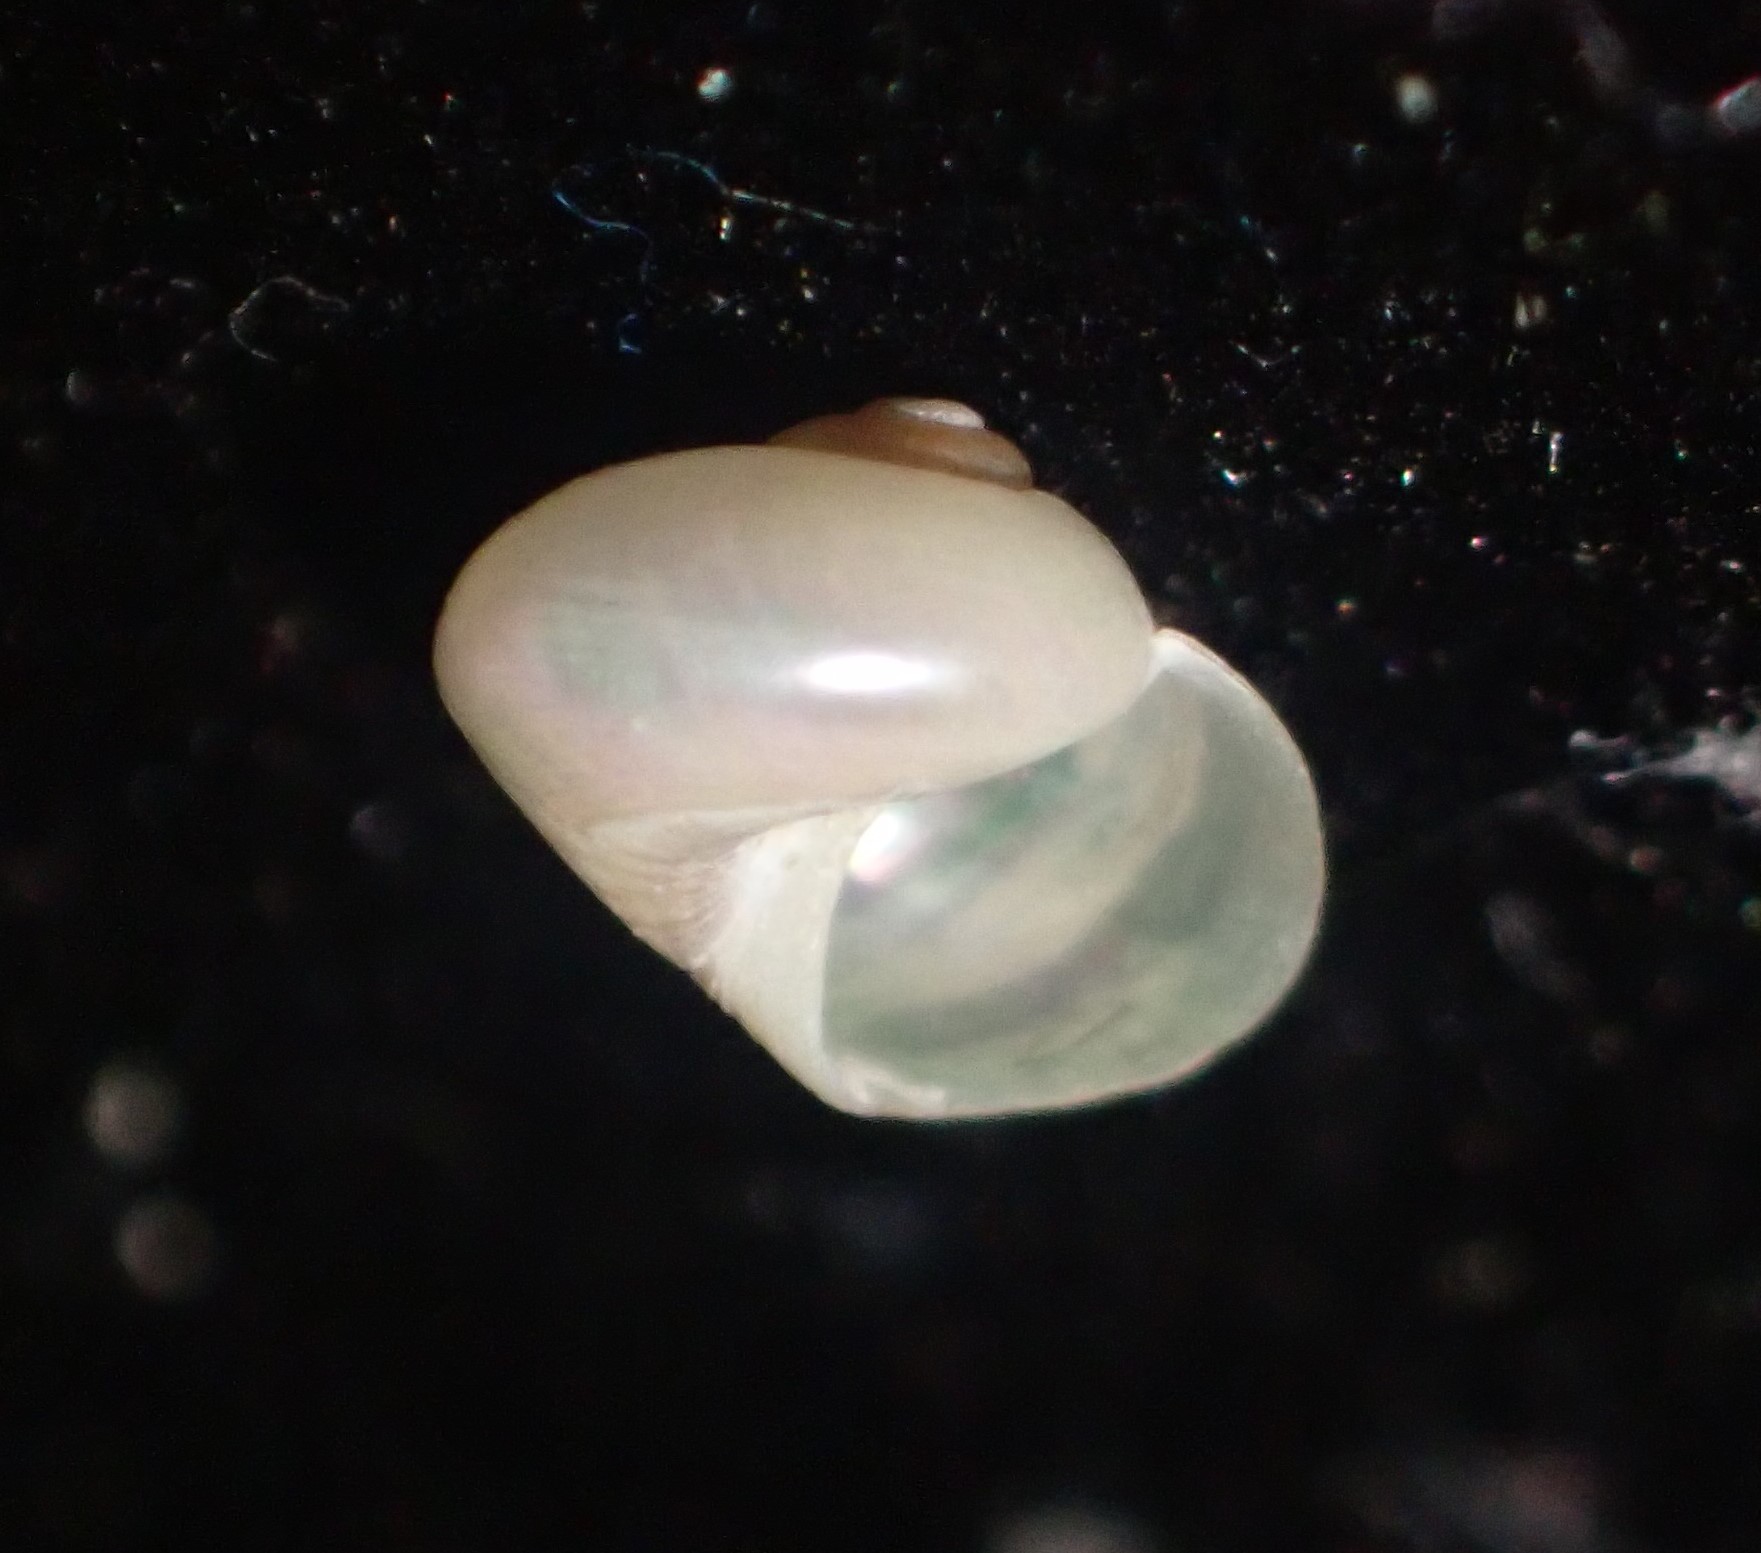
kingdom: Animalia
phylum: Mollusca
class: Gastropoda
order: Trochida
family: Trochidae
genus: Cantharidus
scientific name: Cantharidus fulminatus
